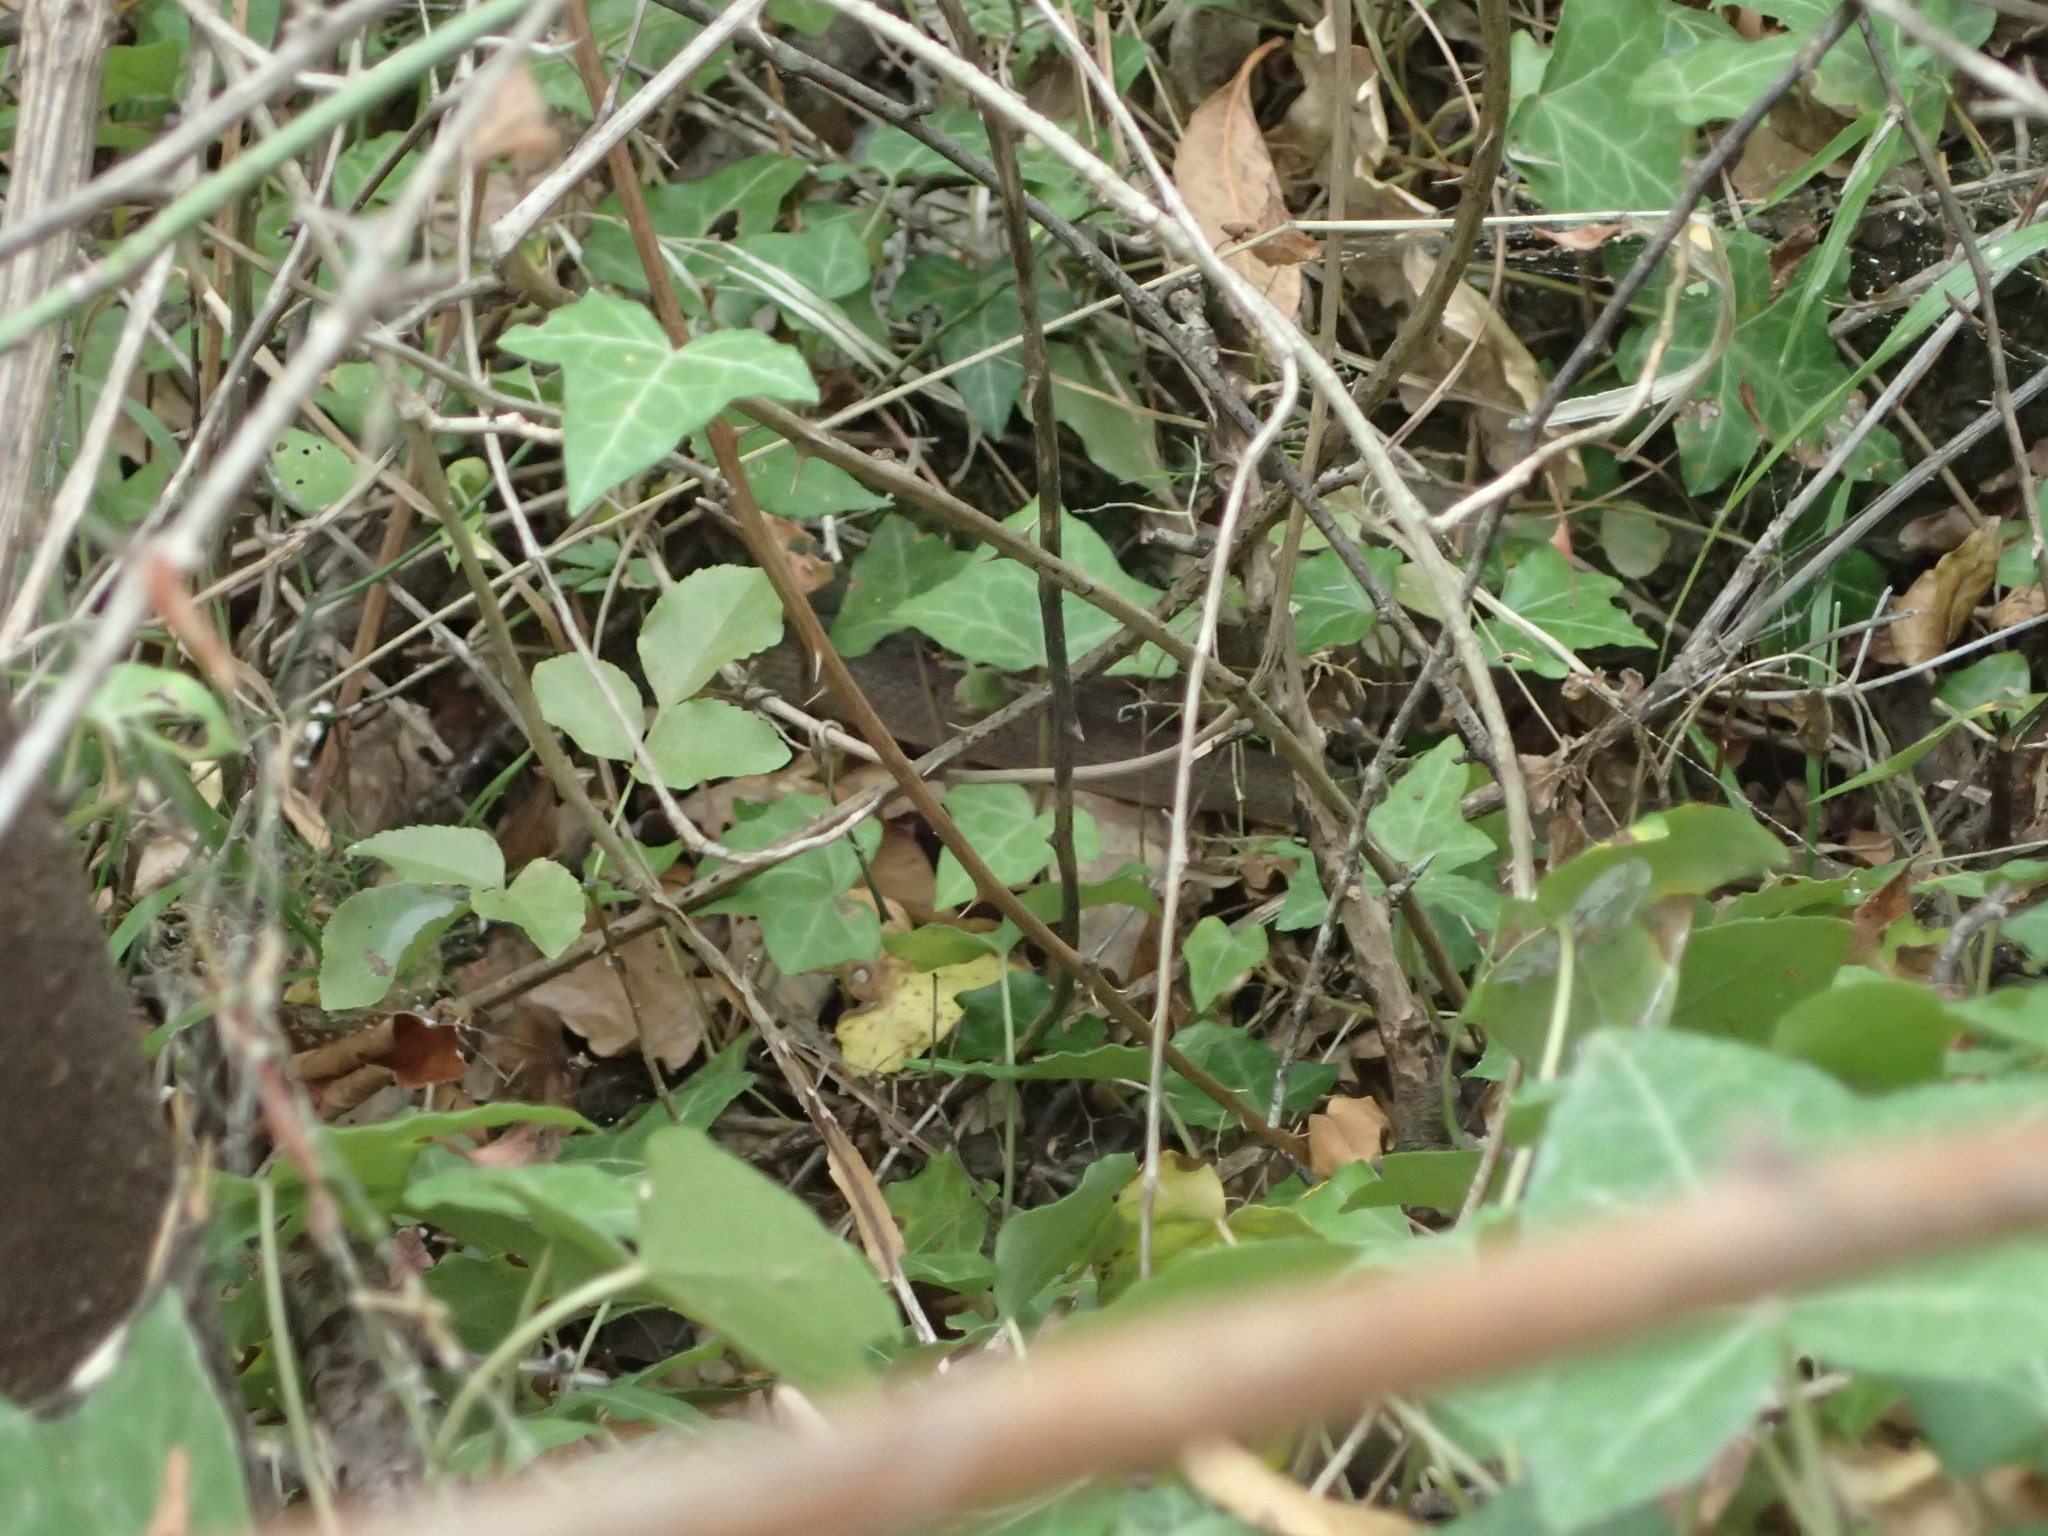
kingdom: Animalia
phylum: Chordata
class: Squamata
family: Colubridae
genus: Hierophis
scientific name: Hierophis gemonensis
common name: Balkan whip snake
